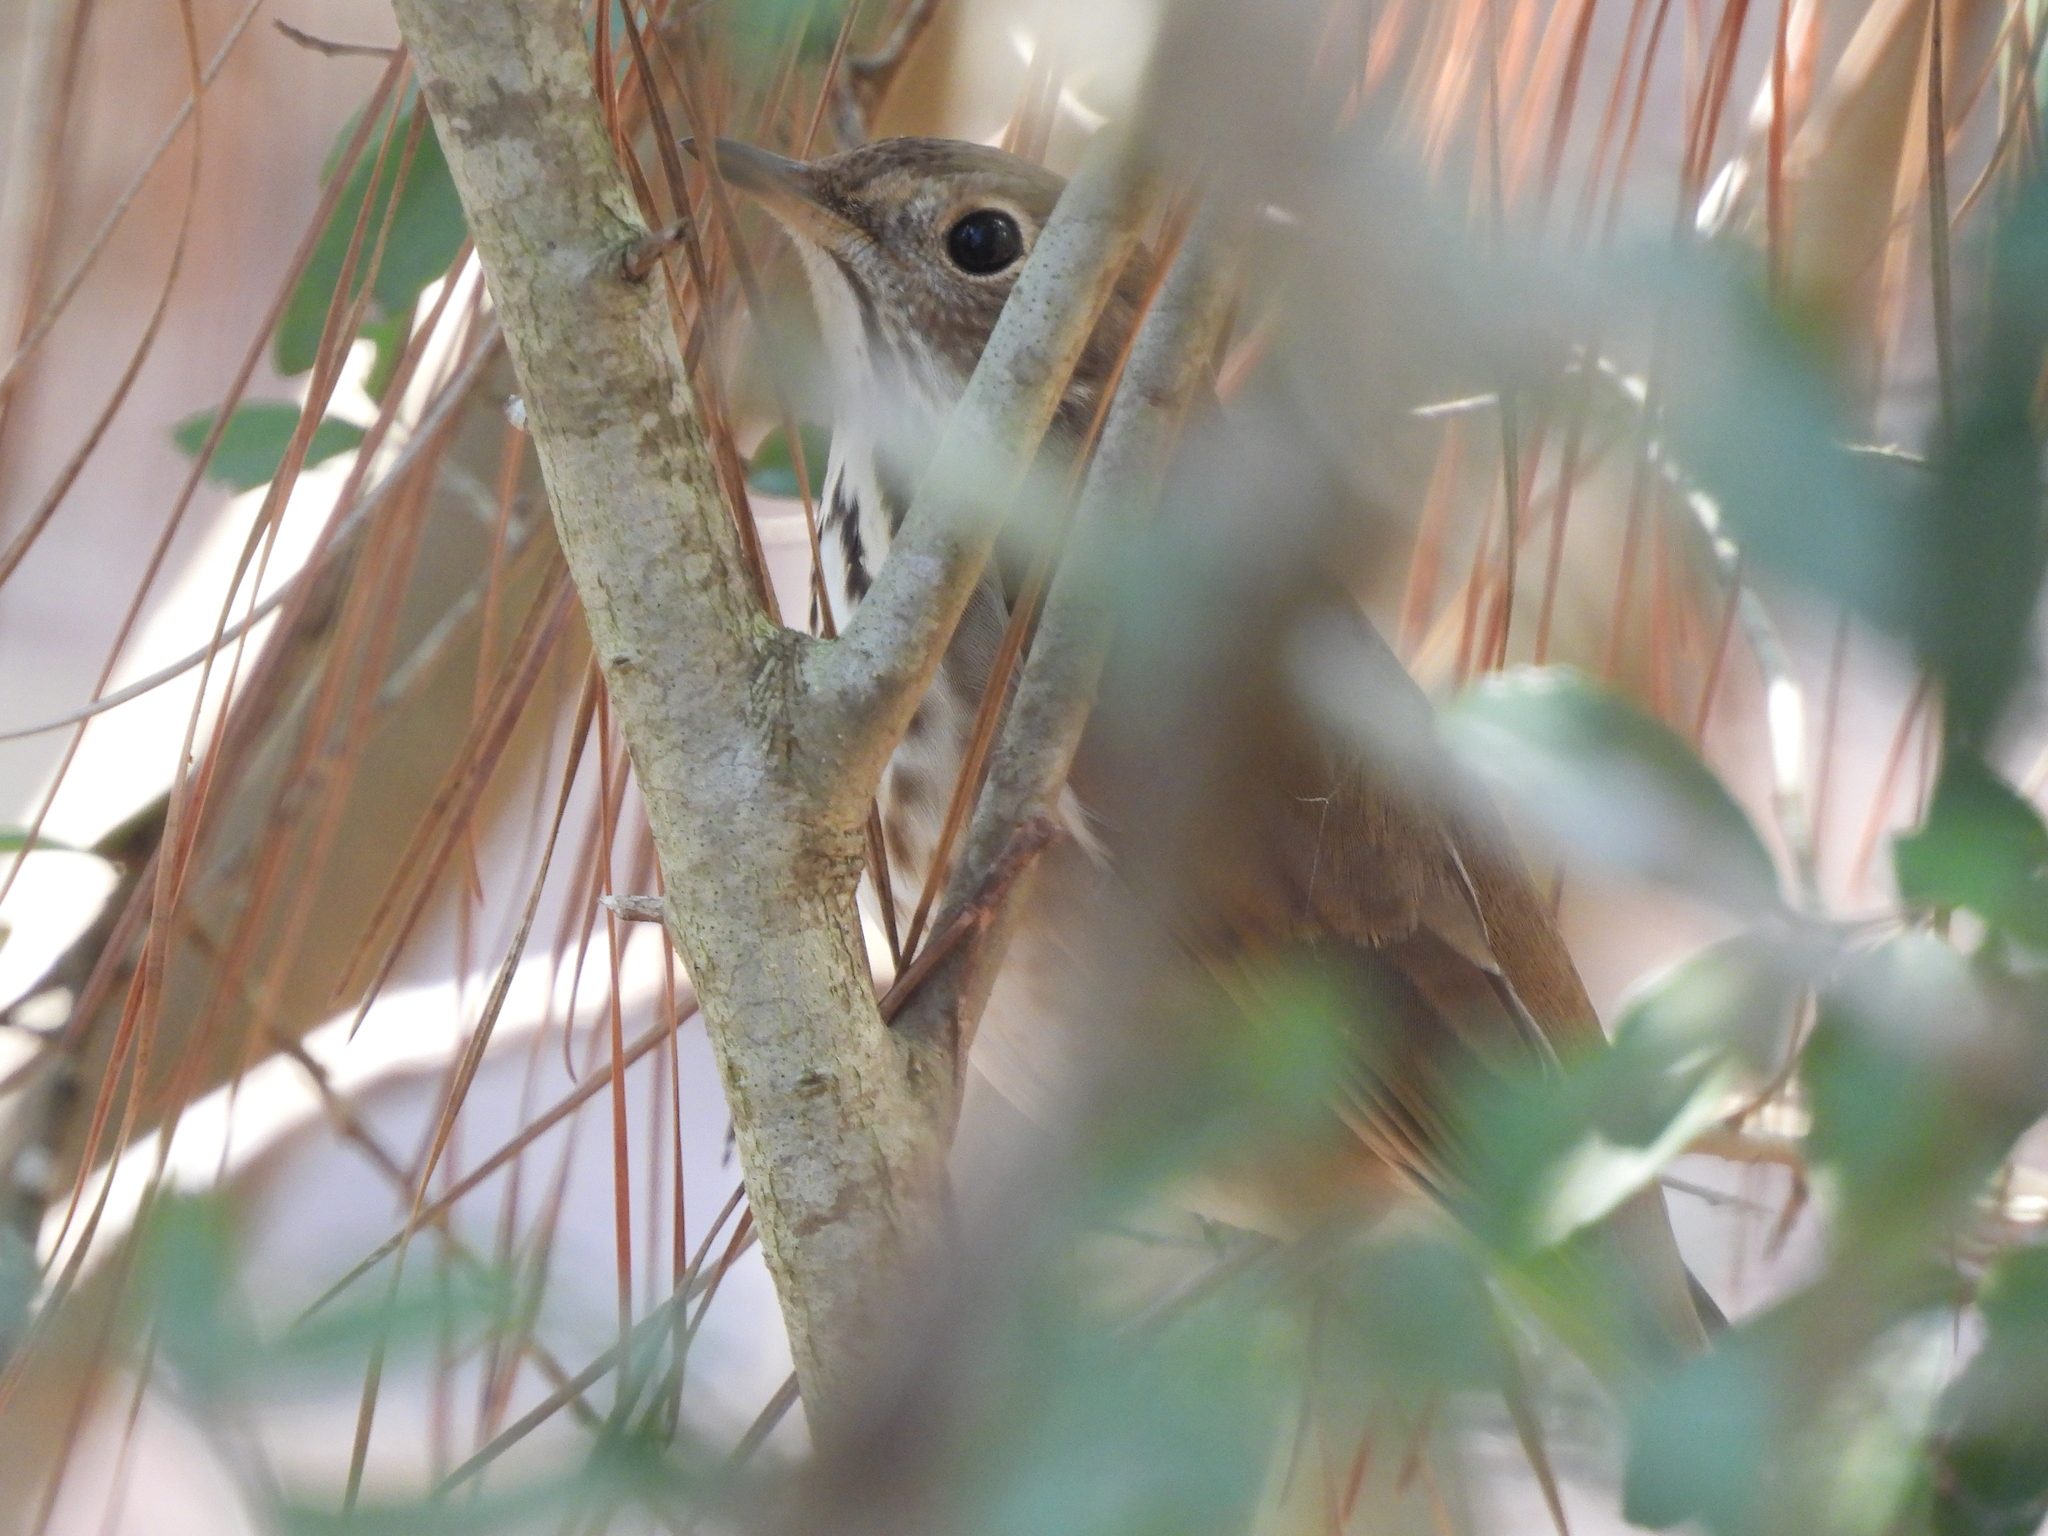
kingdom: Animalia
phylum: Chordata
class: Aves
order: Passeriformes
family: Turdidae
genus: Catharus
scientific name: Catharus guttatus
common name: Hermit thrush
